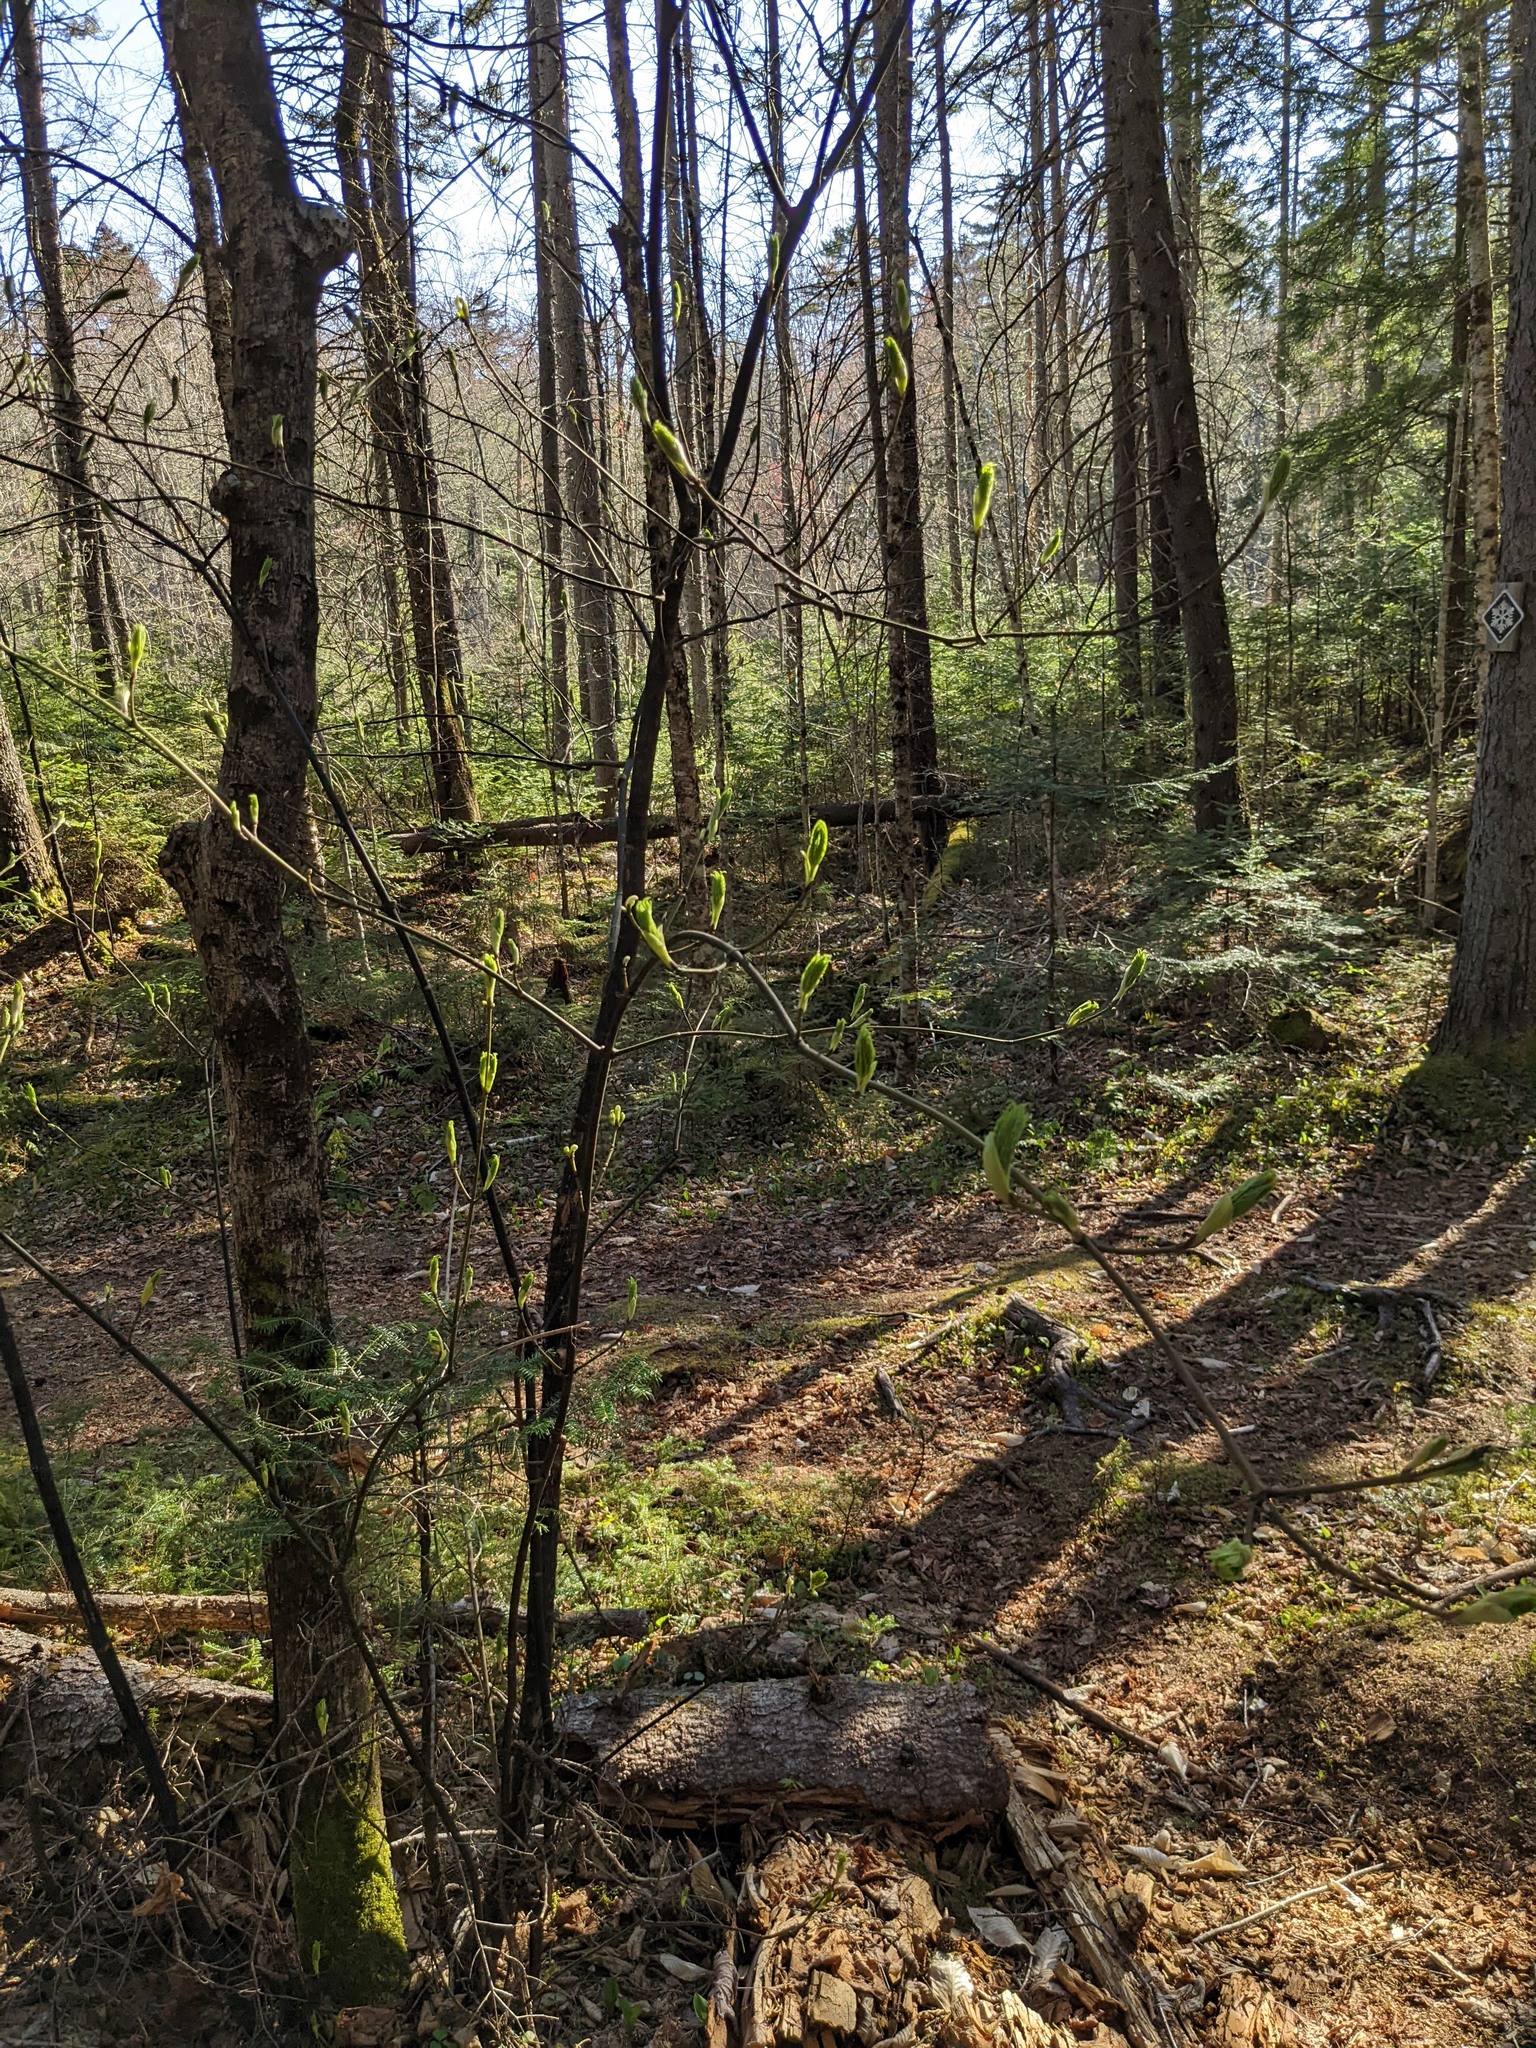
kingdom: Plantae
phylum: Tracheophyta
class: Magnoliopsida
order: Sapindales
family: Sapindaceae
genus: Acer
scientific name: Acer pensylvanicum
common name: Moosewood
